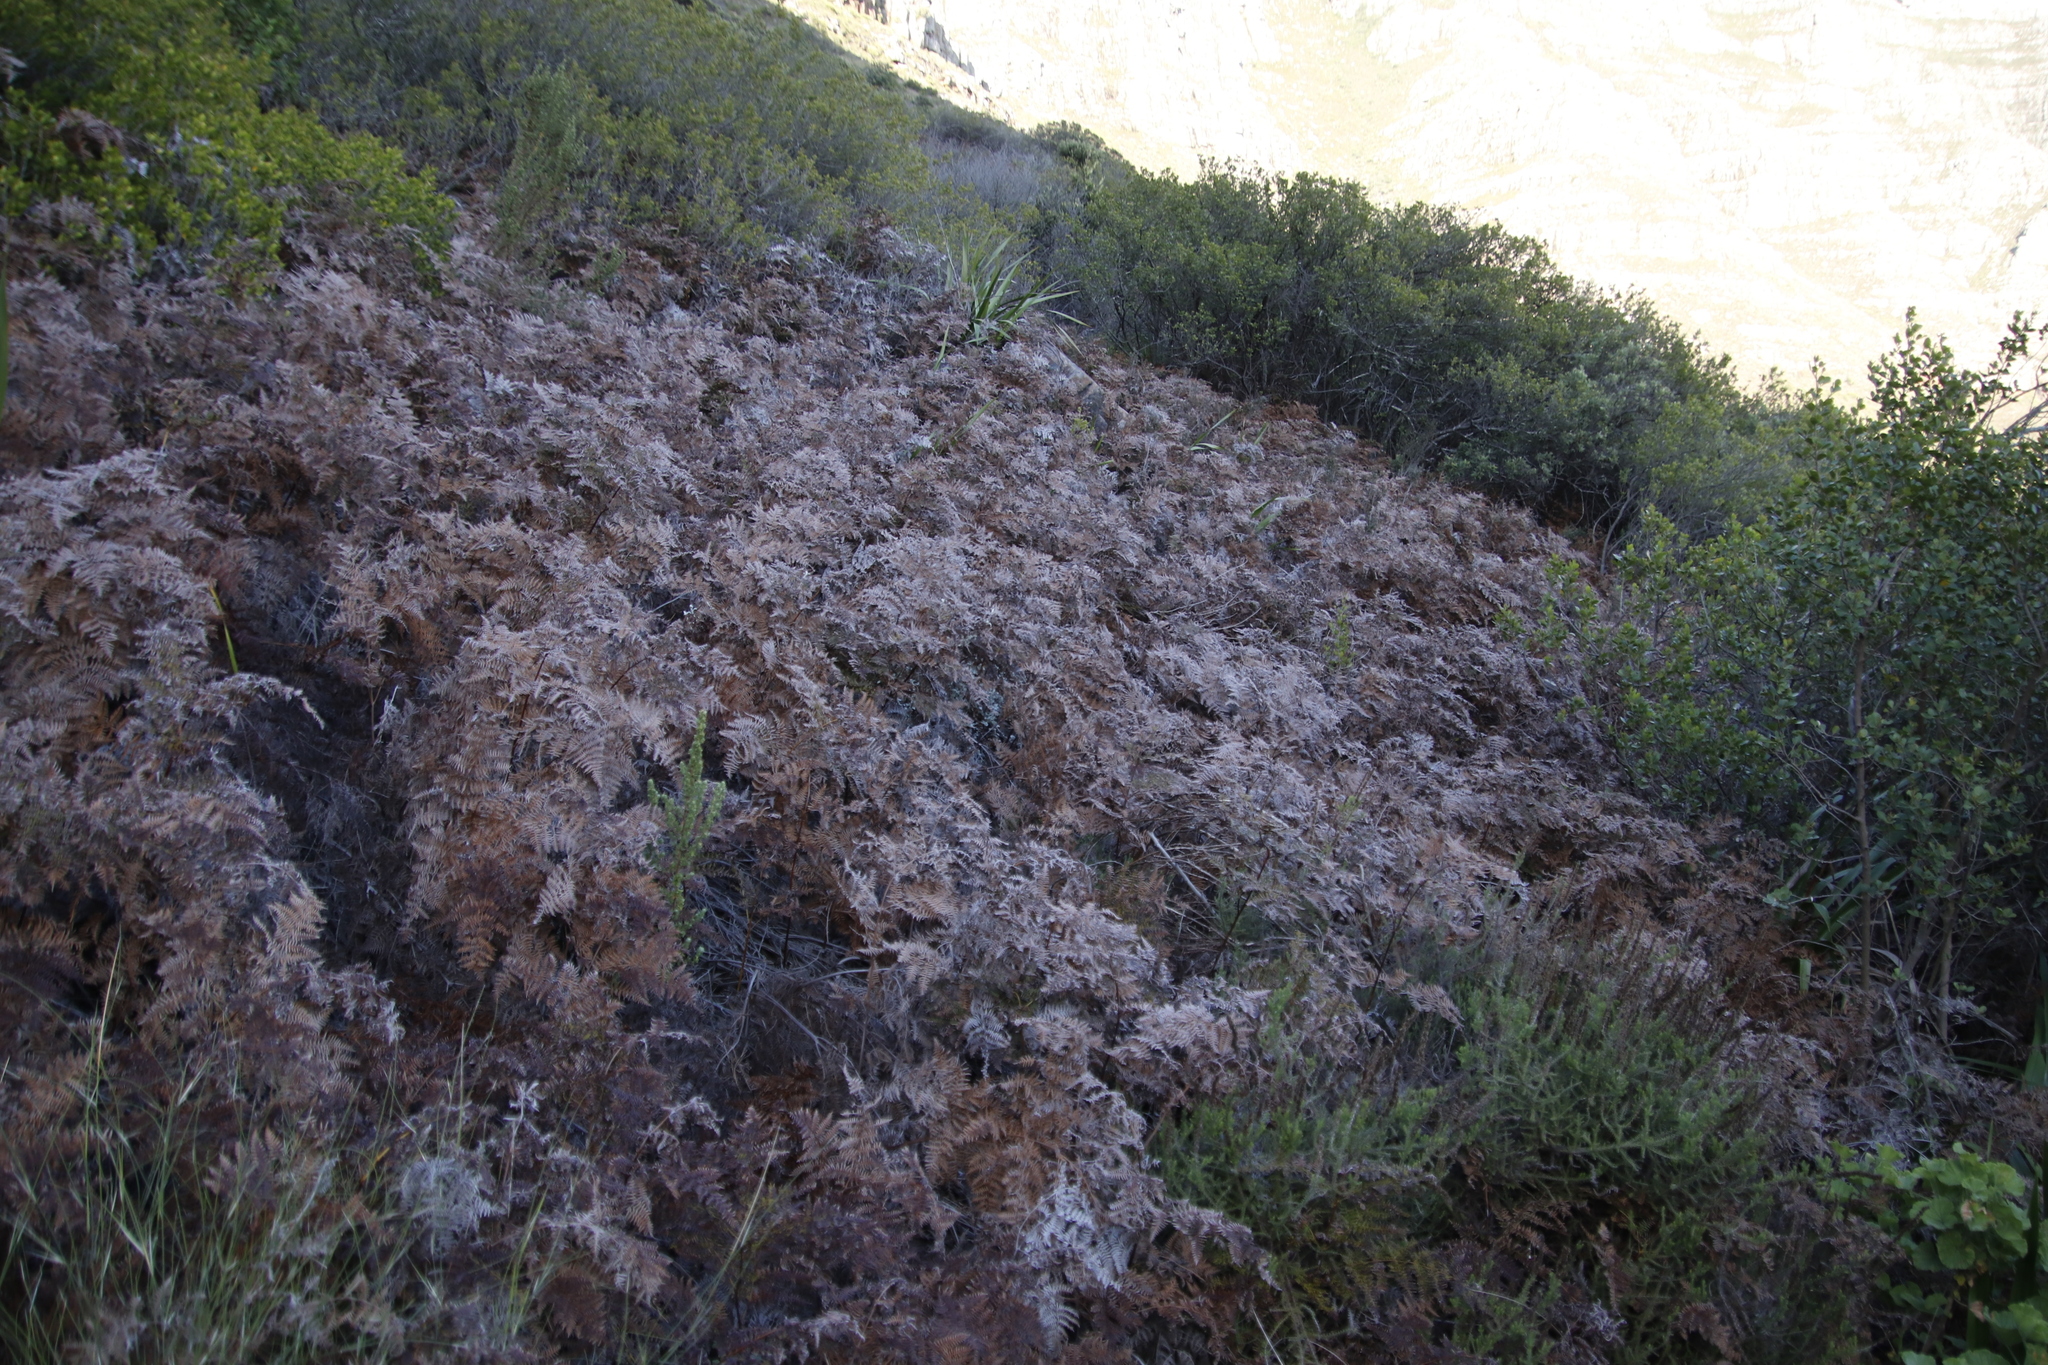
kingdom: Plantae
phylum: Tracheophyta
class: Polypodiopsida
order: Polypodiales
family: Dennstaedtiaceae
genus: Pteridium
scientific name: Pteridium aquilinum
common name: Bracken
